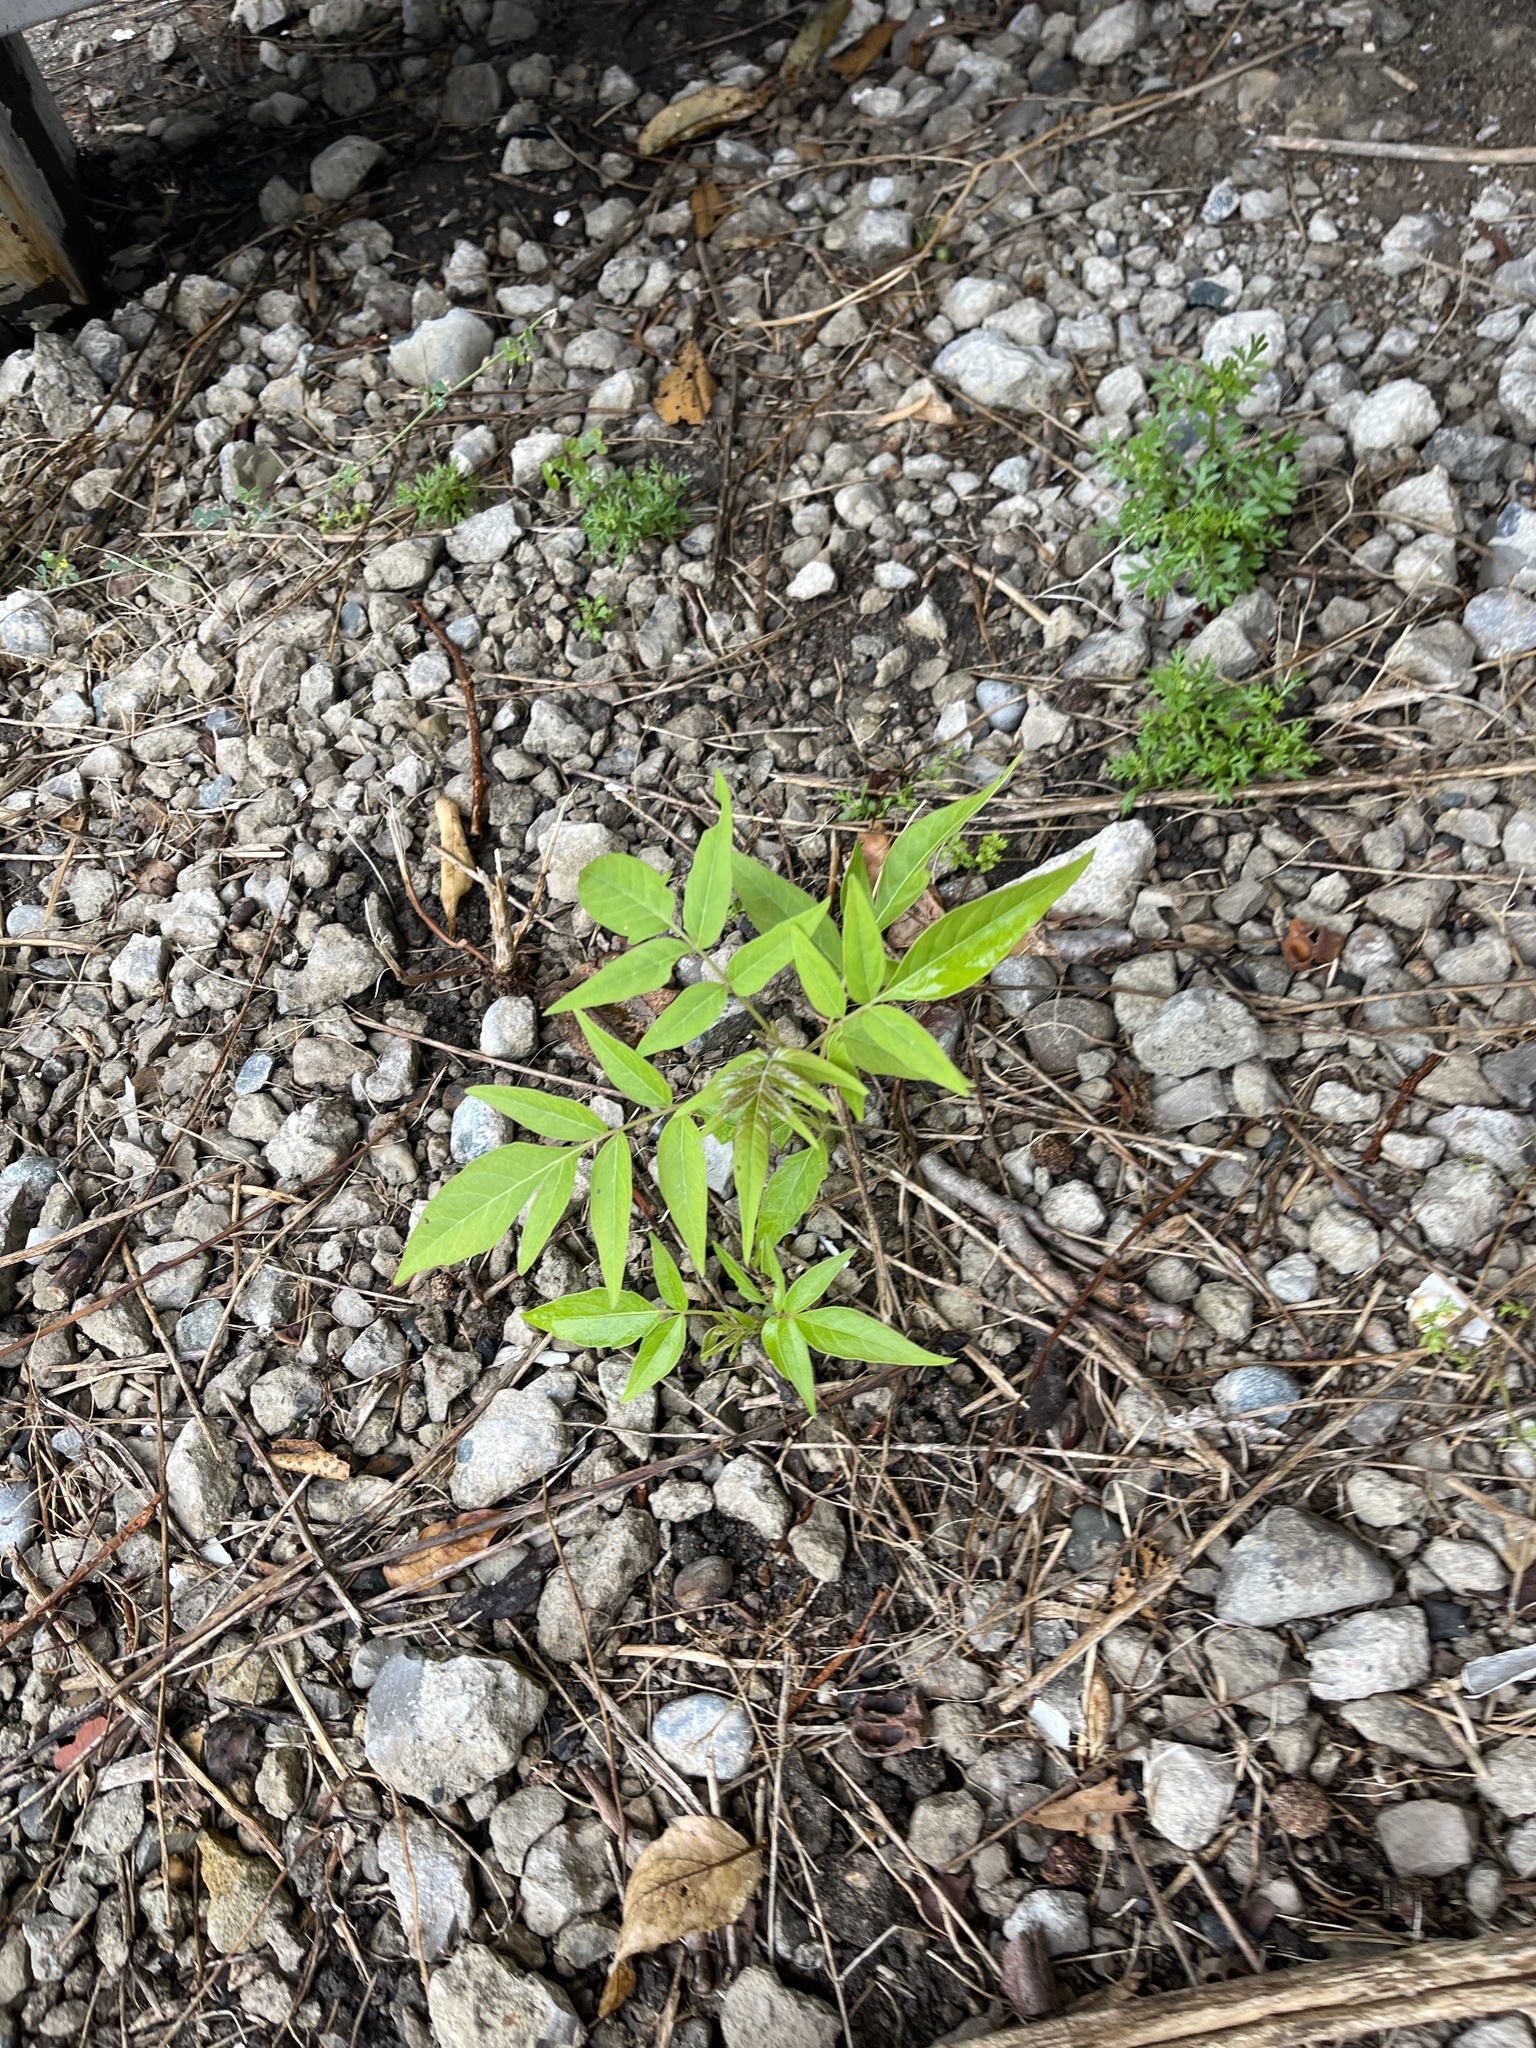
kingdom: Plantae
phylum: Tracheophyta
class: Magnoliopsida
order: Sapindales
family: Simaroubaceae
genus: Ailanthus
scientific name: Ailanthus altissima
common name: Tree-of-heaven
